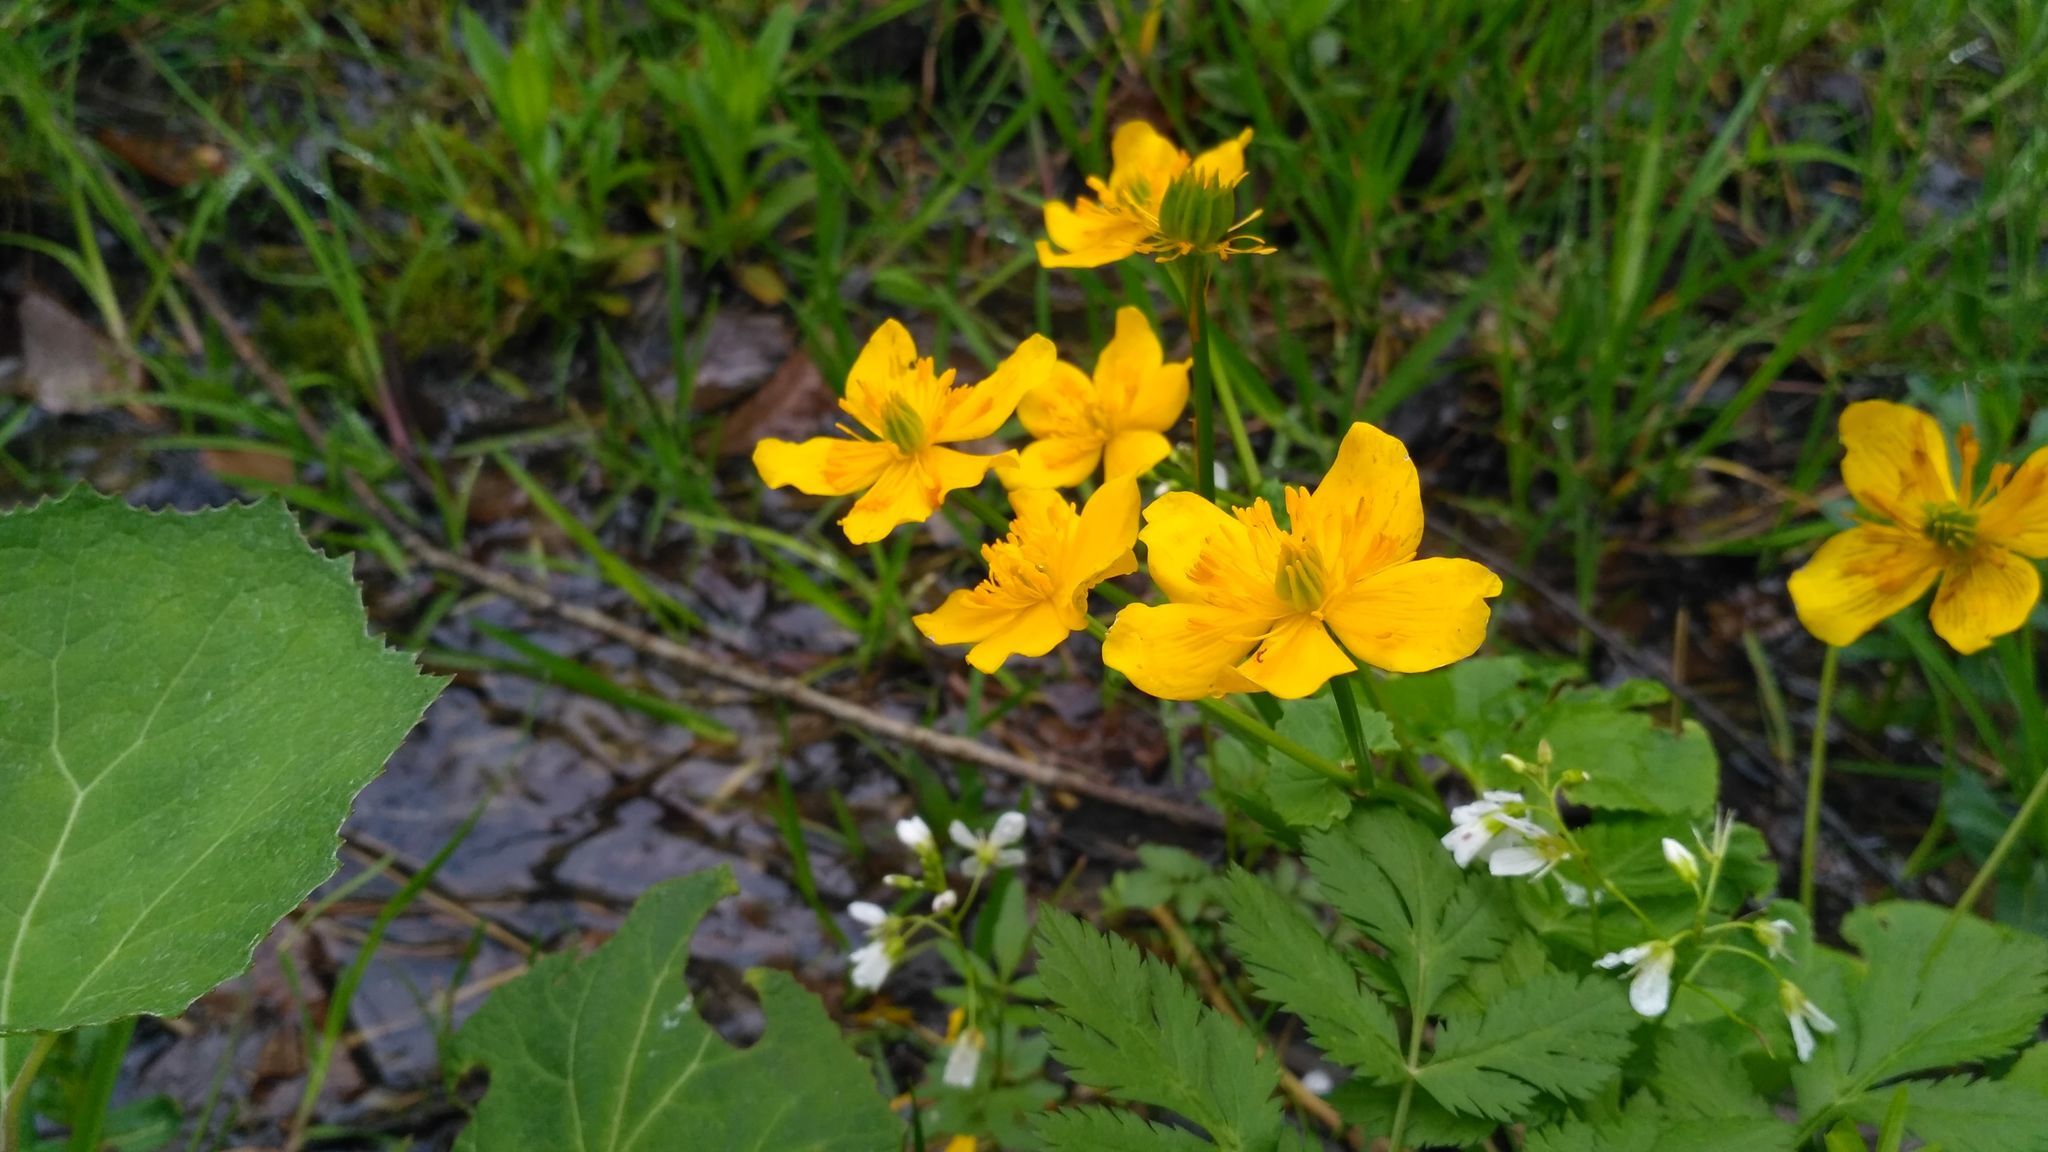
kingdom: Plantae
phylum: Tracheophyta
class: Magnoliopsida
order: Ranunculales
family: Ranunculaceae
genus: Caltha
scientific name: Caltha palustris
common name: Marsh marigold
